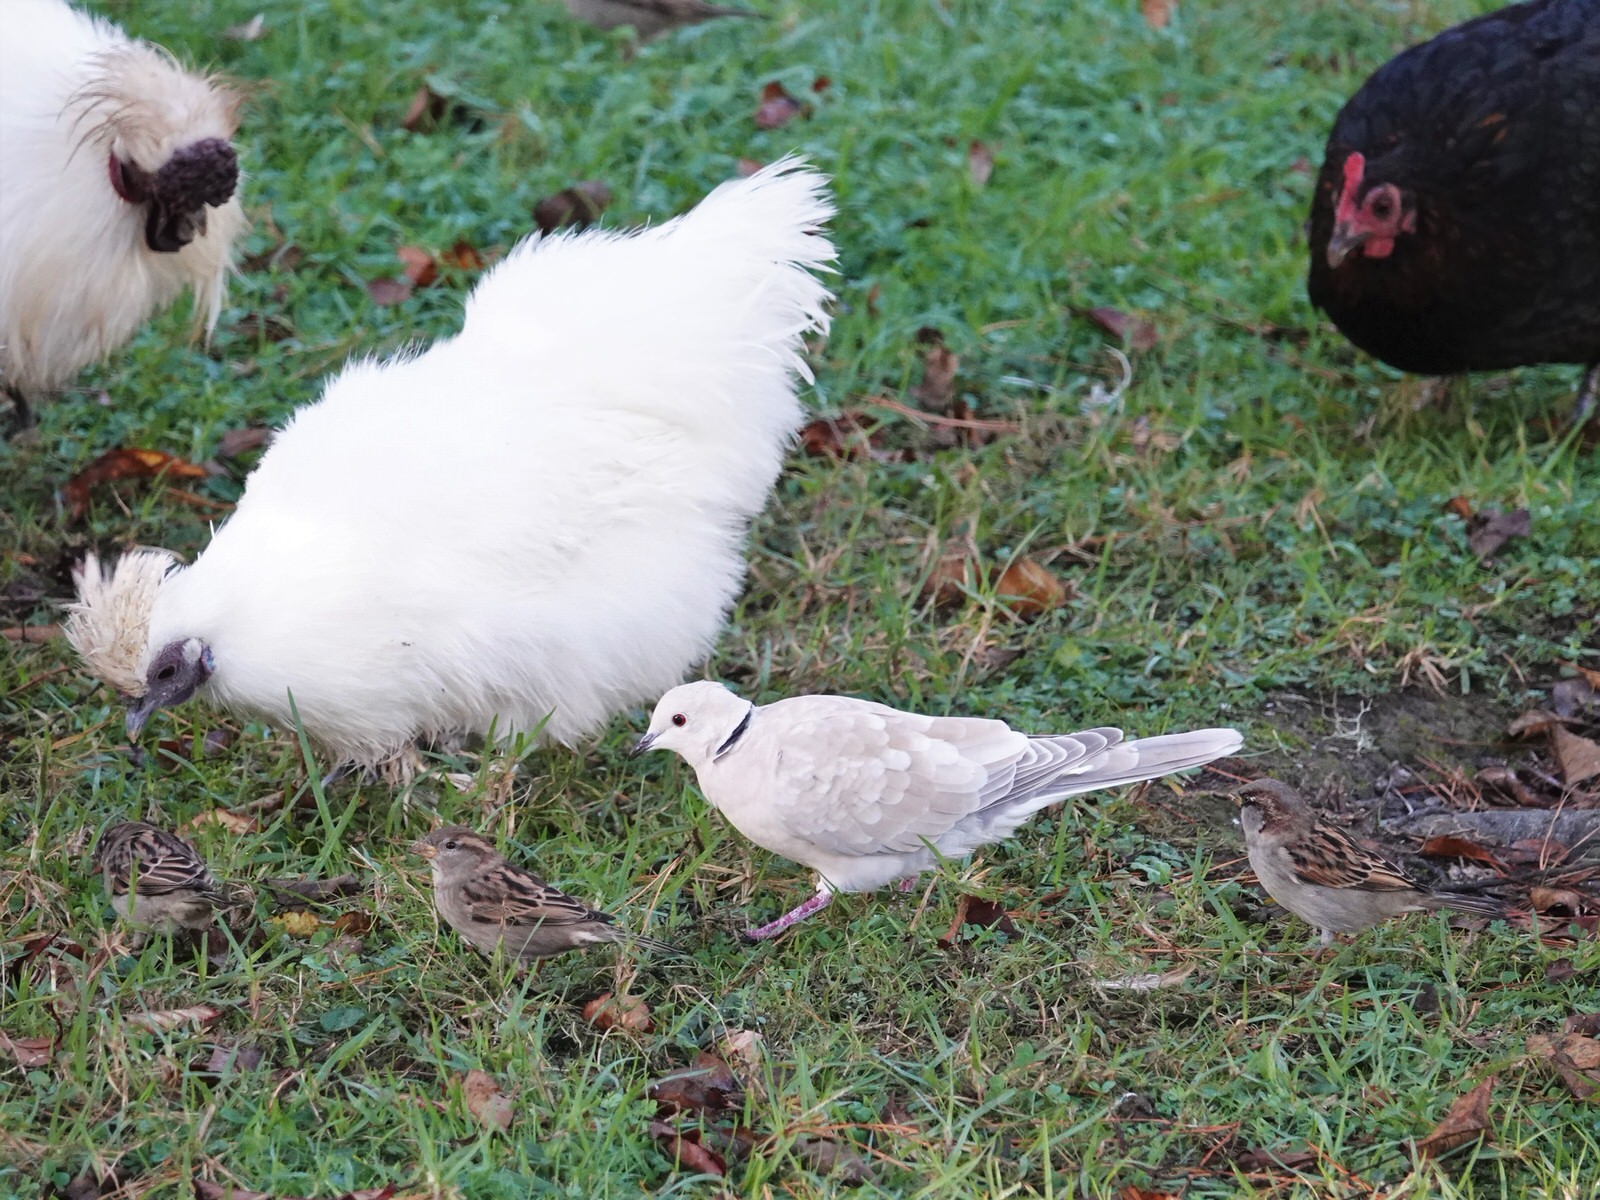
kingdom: Animalia
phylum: Chordata
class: Aves
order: Columbiformes
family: Columbidae
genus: Streptopelia
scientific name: Streptopelia roseogrisea
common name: African collared dove
